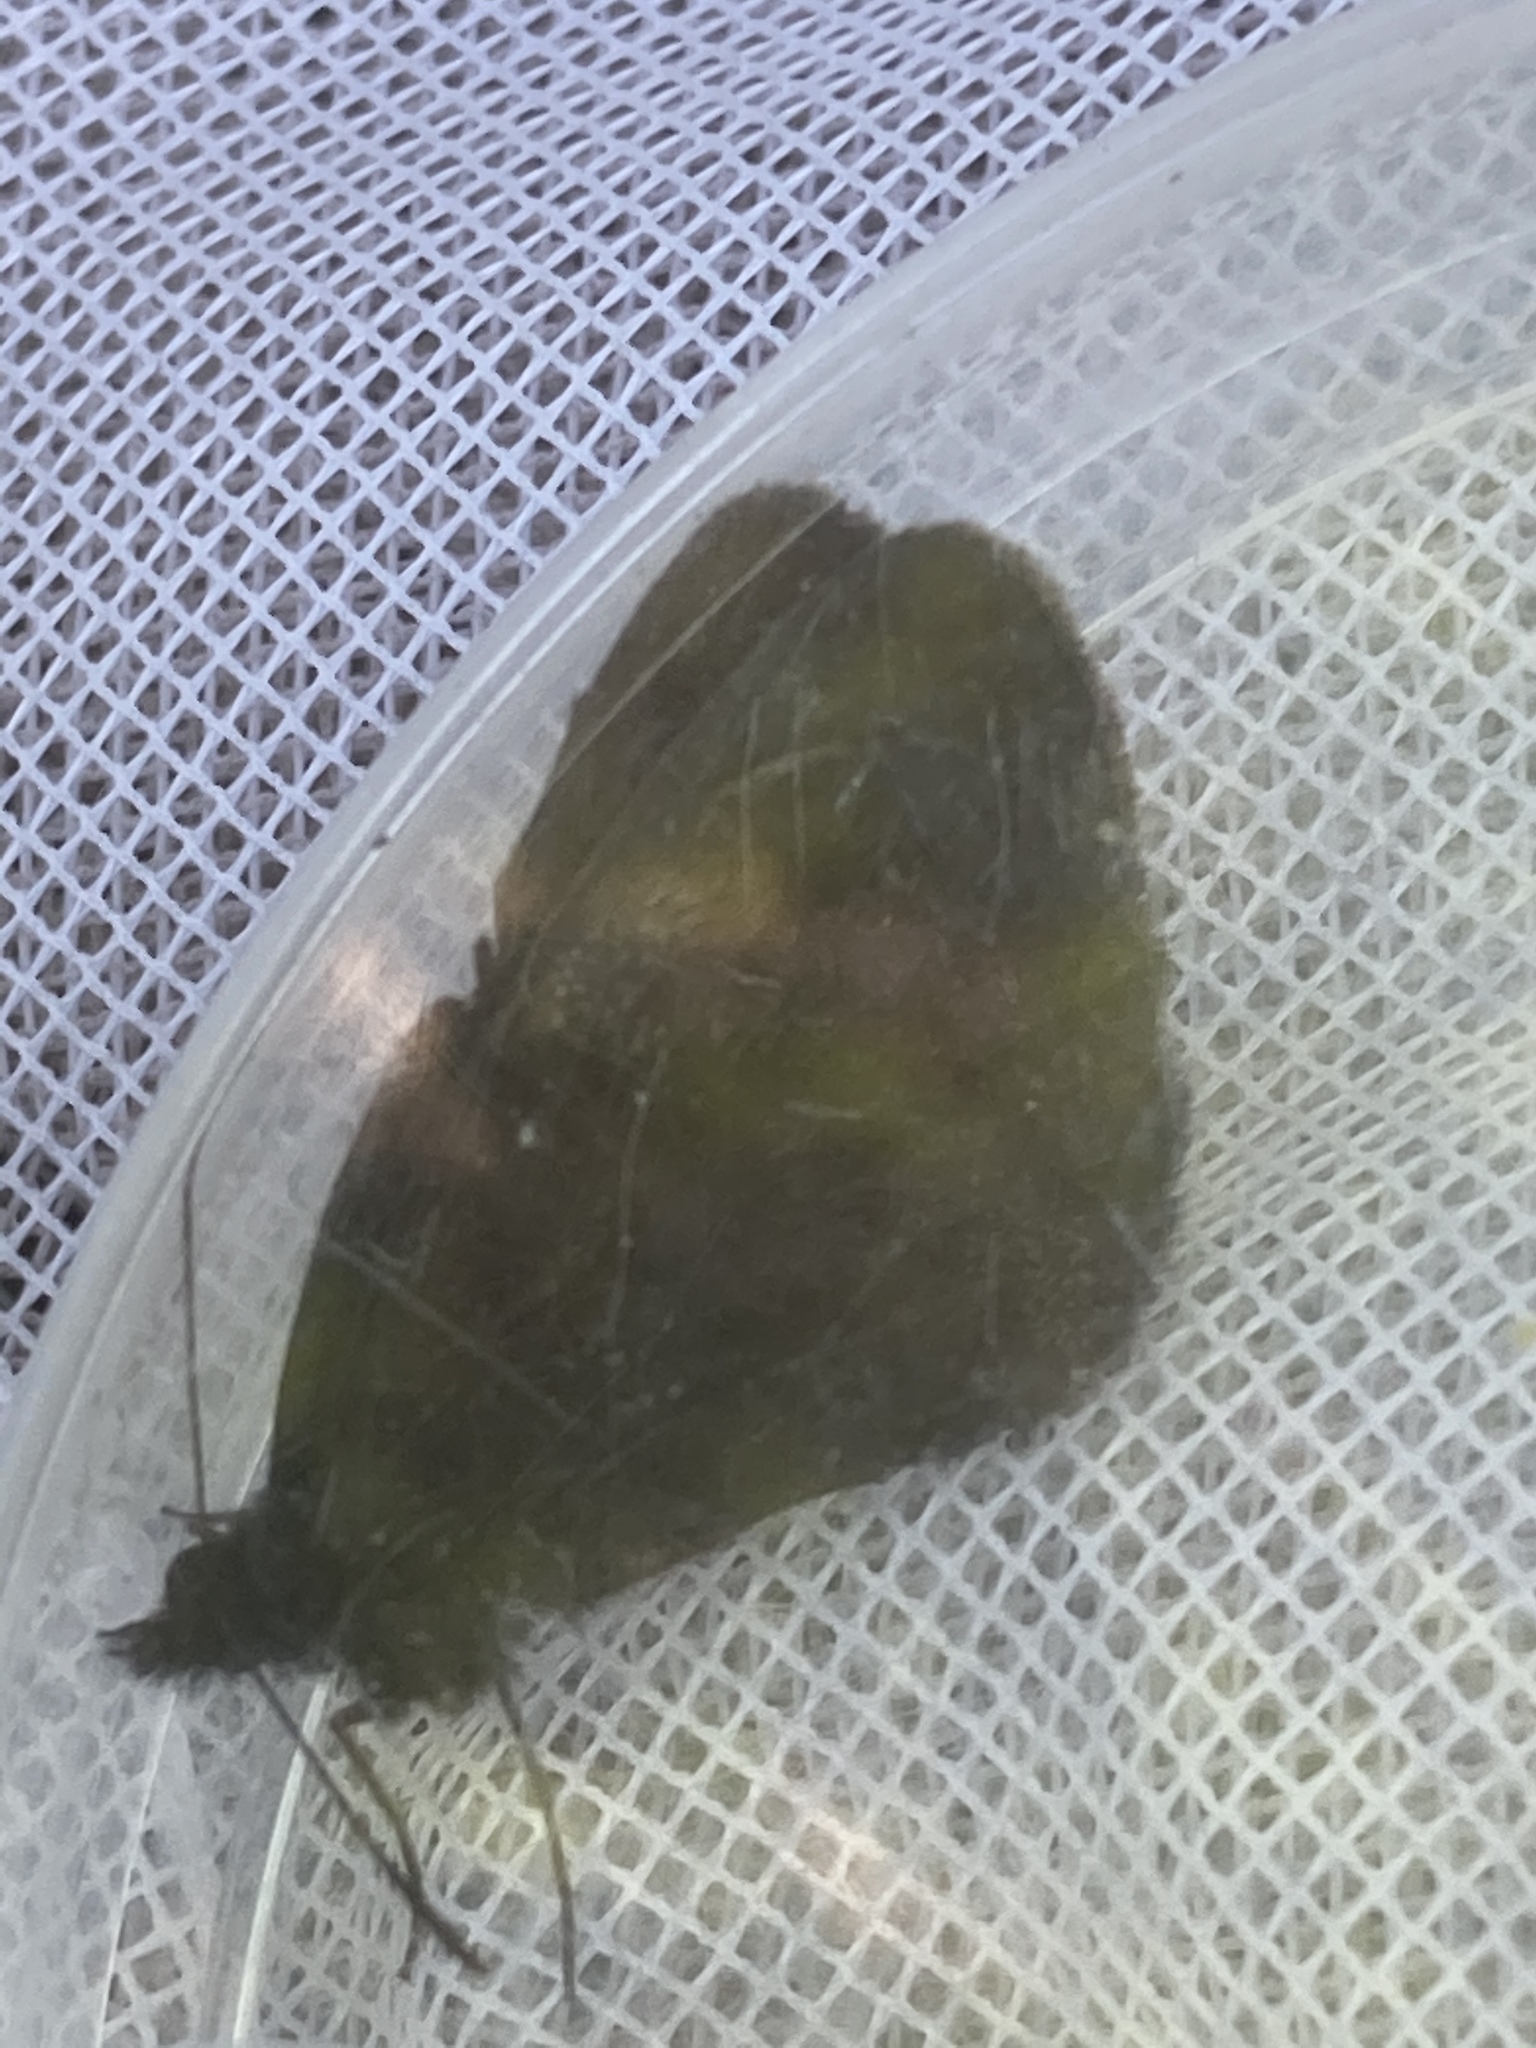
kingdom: Animalia
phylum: Arthropoda
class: Insecta
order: Lepidoptera
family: Nymphalidae
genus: Erebia
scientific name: Erebia aethiops
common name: Scotch argus
